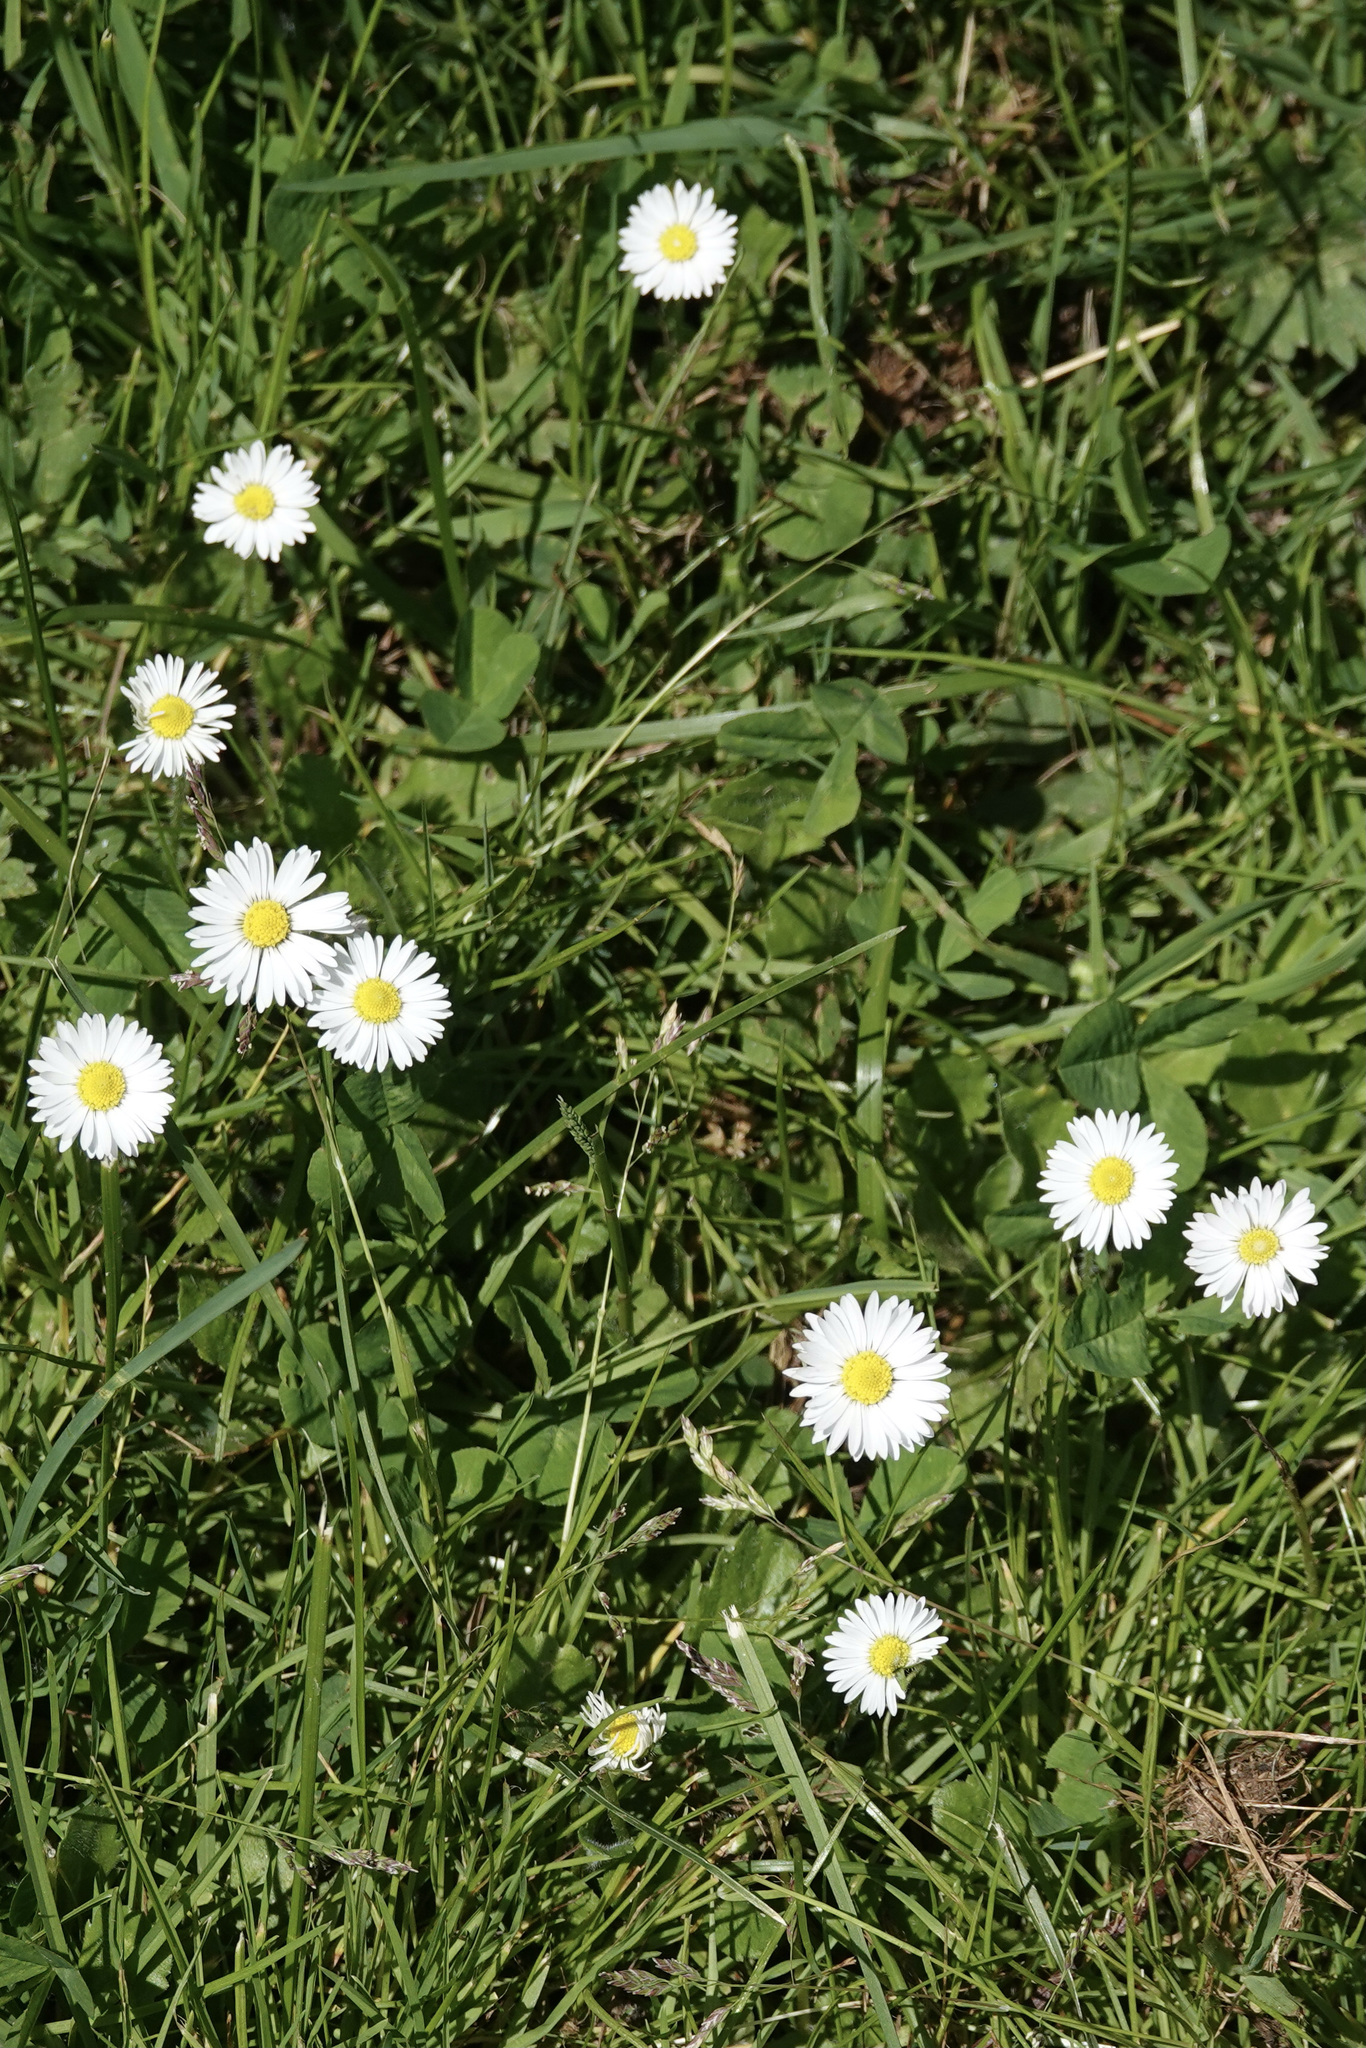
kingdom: Plantae
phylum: Tracheophyta
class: Magnoliopsida
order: Asterales
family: Asteraceae
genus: Bellis
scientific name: Bellis perennis
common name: Lawndaisy
